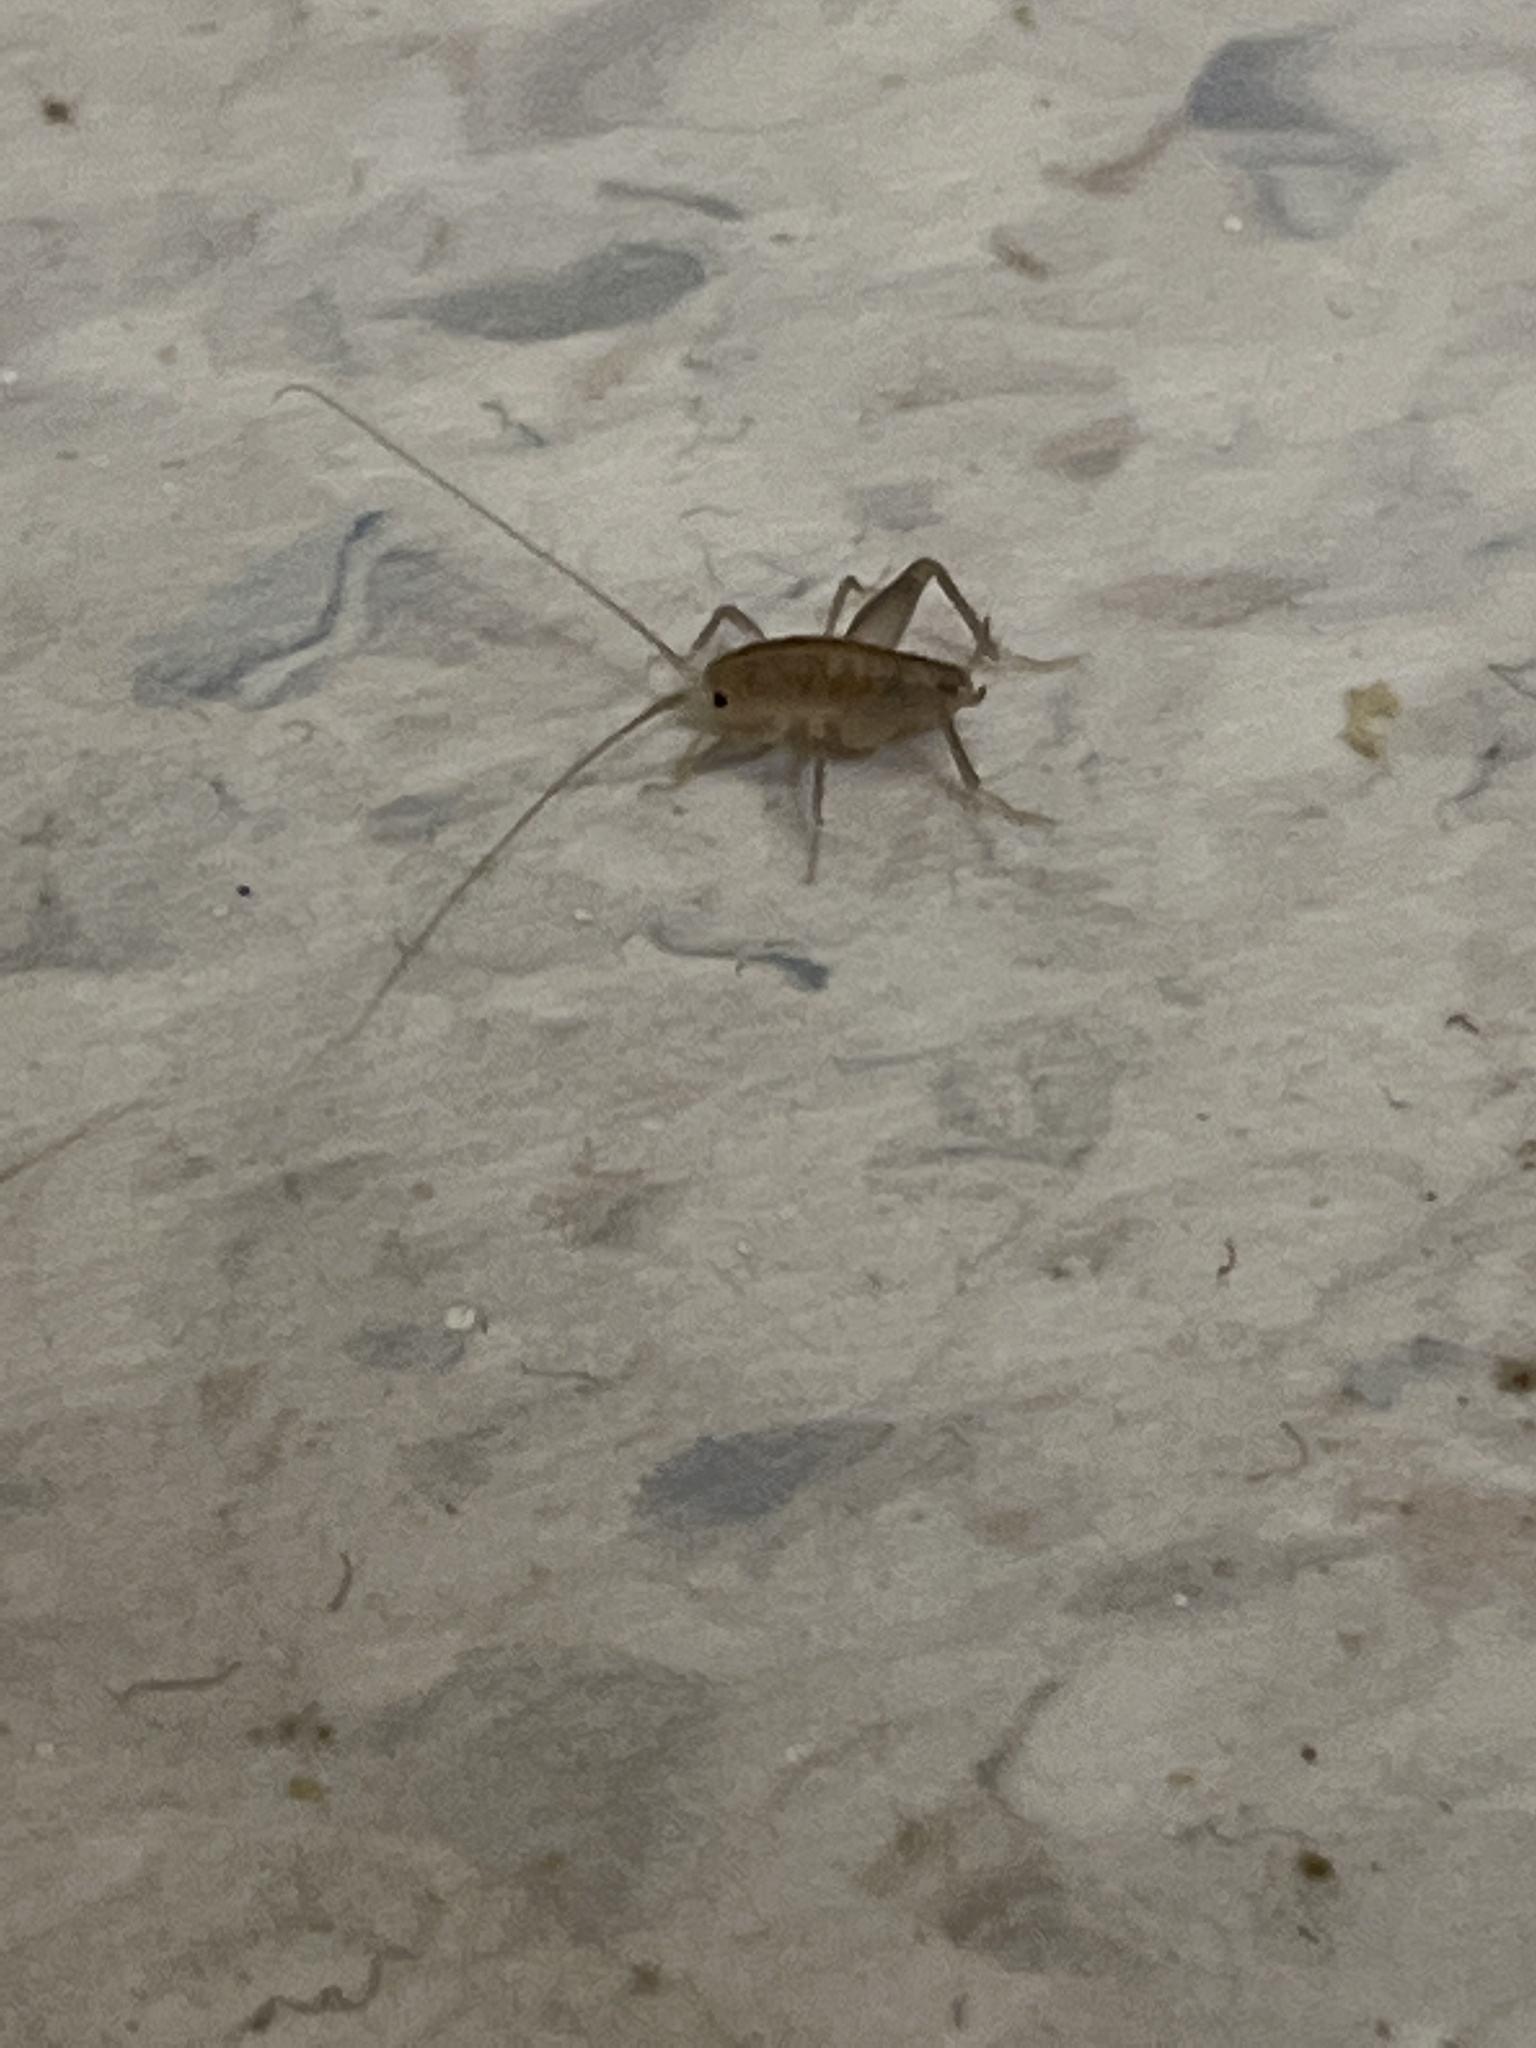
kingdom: Animalia
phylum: Arthropoda
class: Insecta
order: Orthoptera
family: Rhaphidophoridae
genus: Ceuthophilus
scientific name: Ceuthophilus californianus
